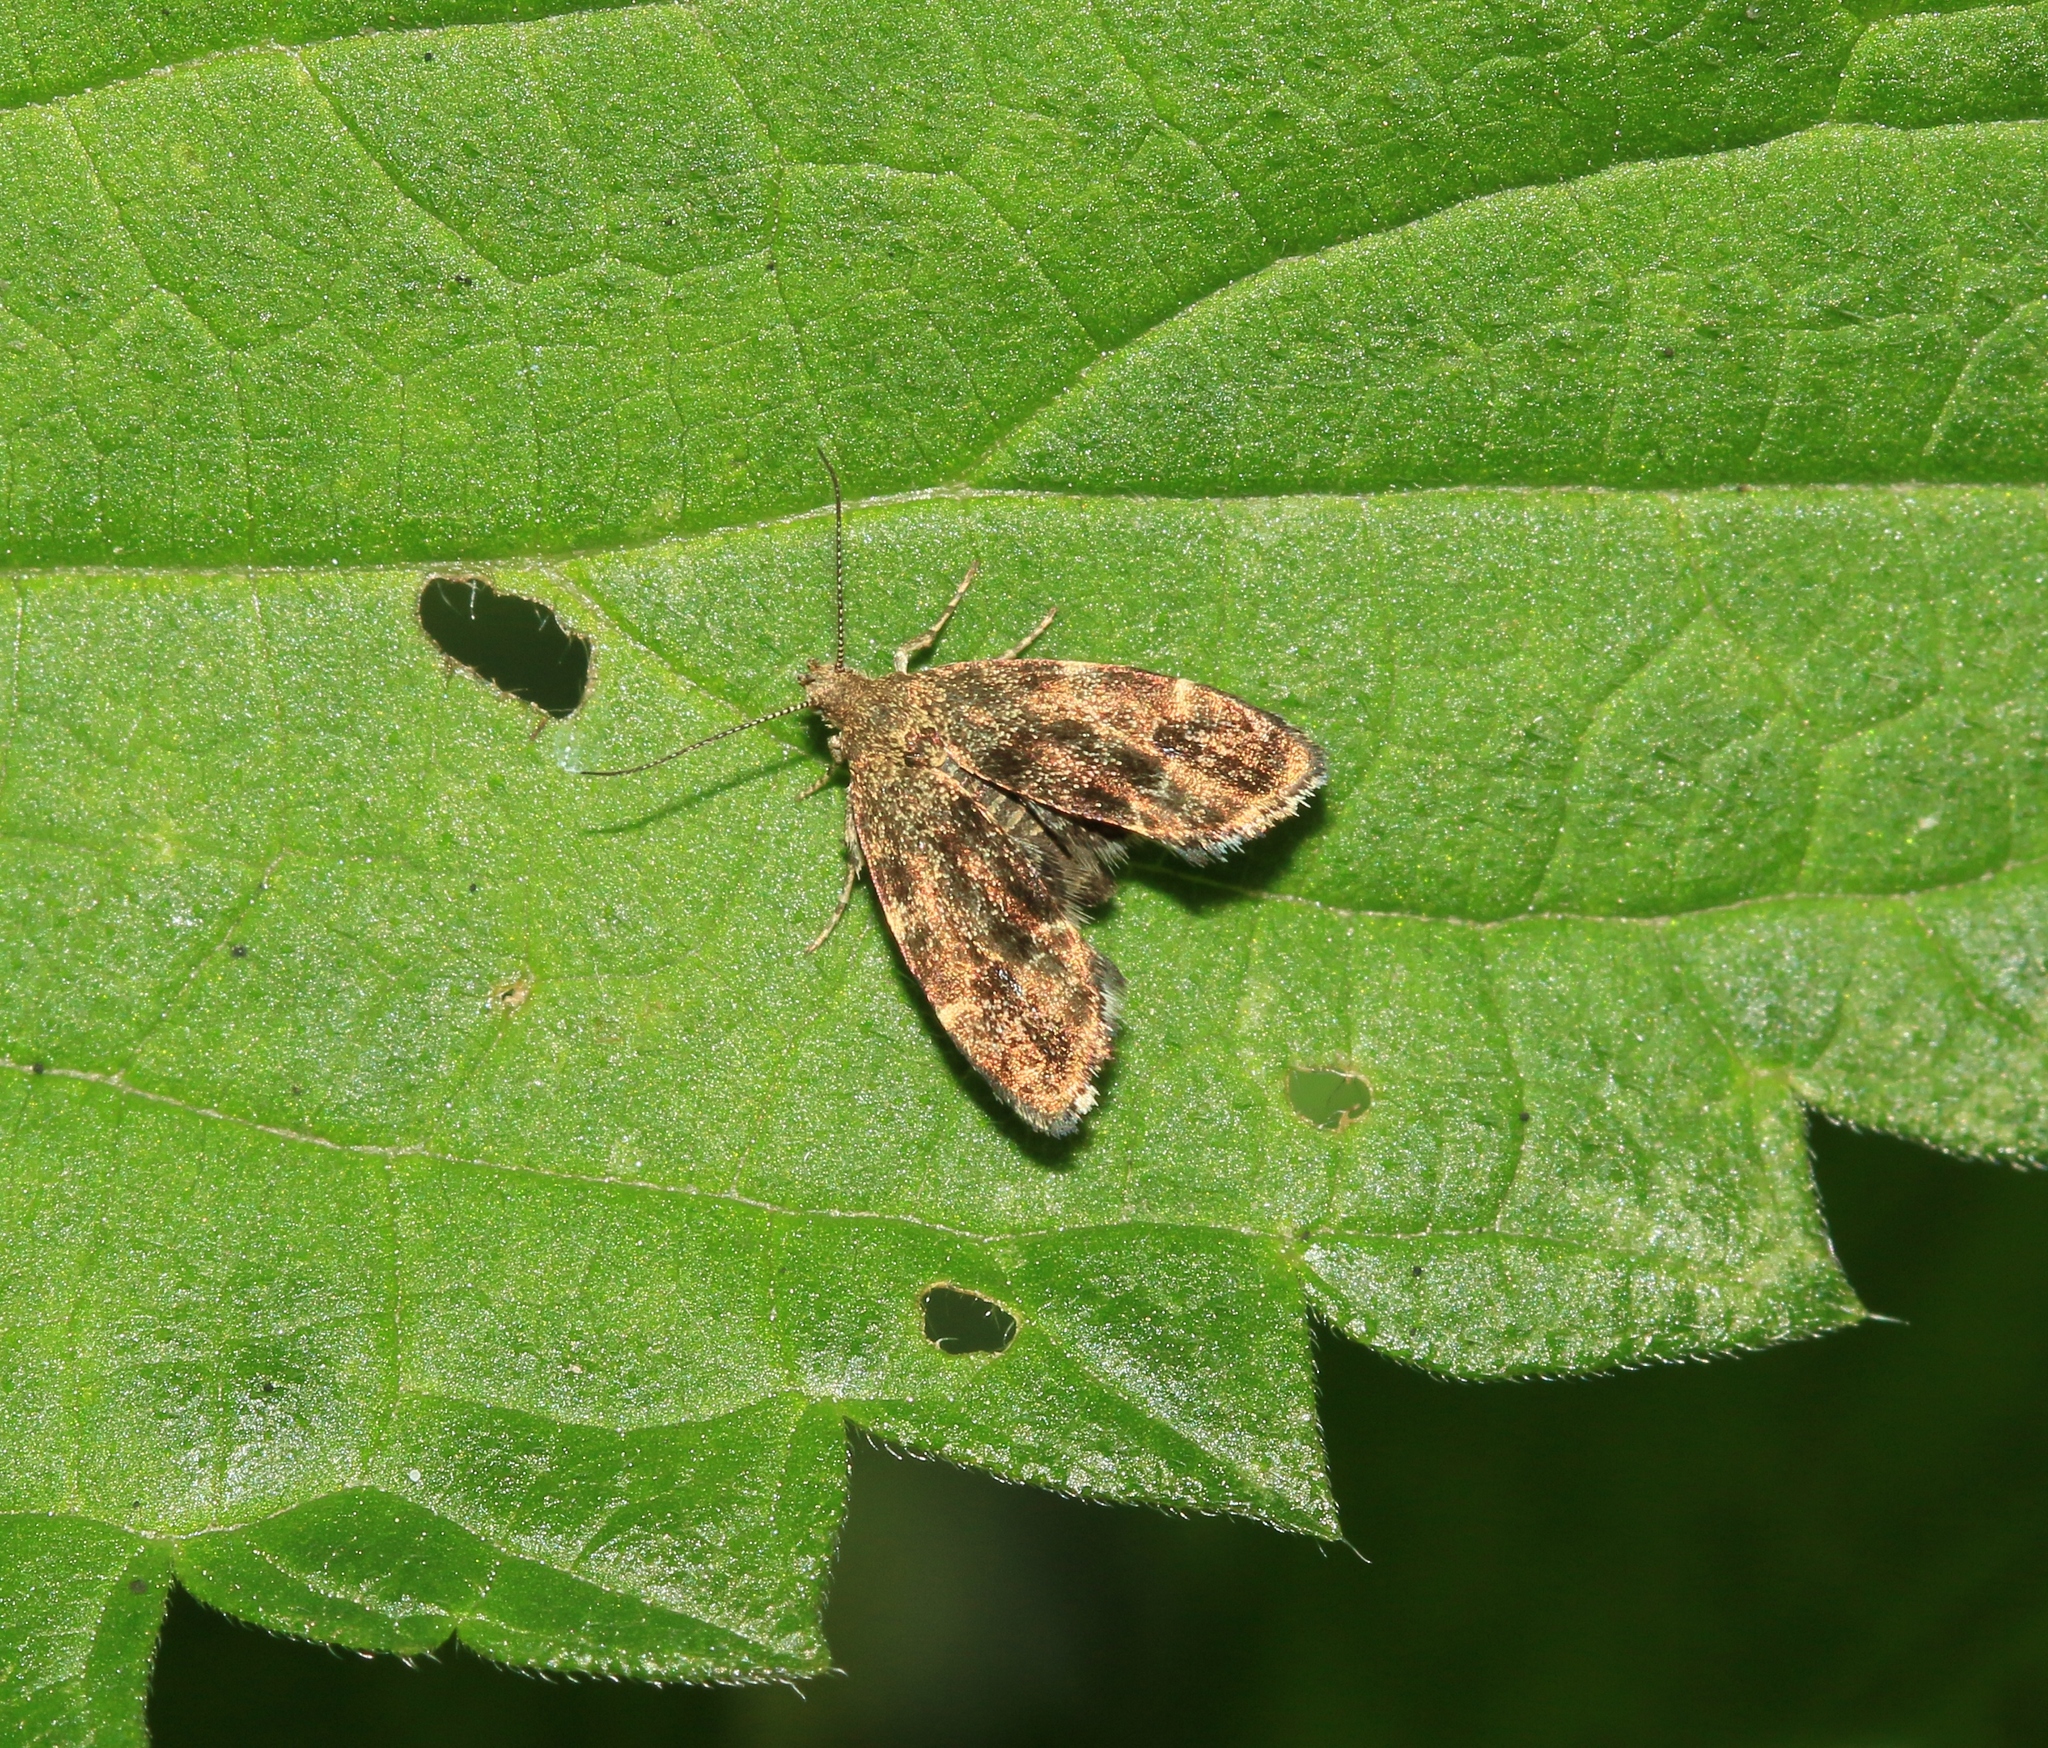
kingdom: Animalia
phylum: Arthropoda
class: Insecta
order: Lepidoptera
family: Choreutidae
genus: Anthophila
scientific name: Anthophila fabriciana
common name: Nettle-tap
